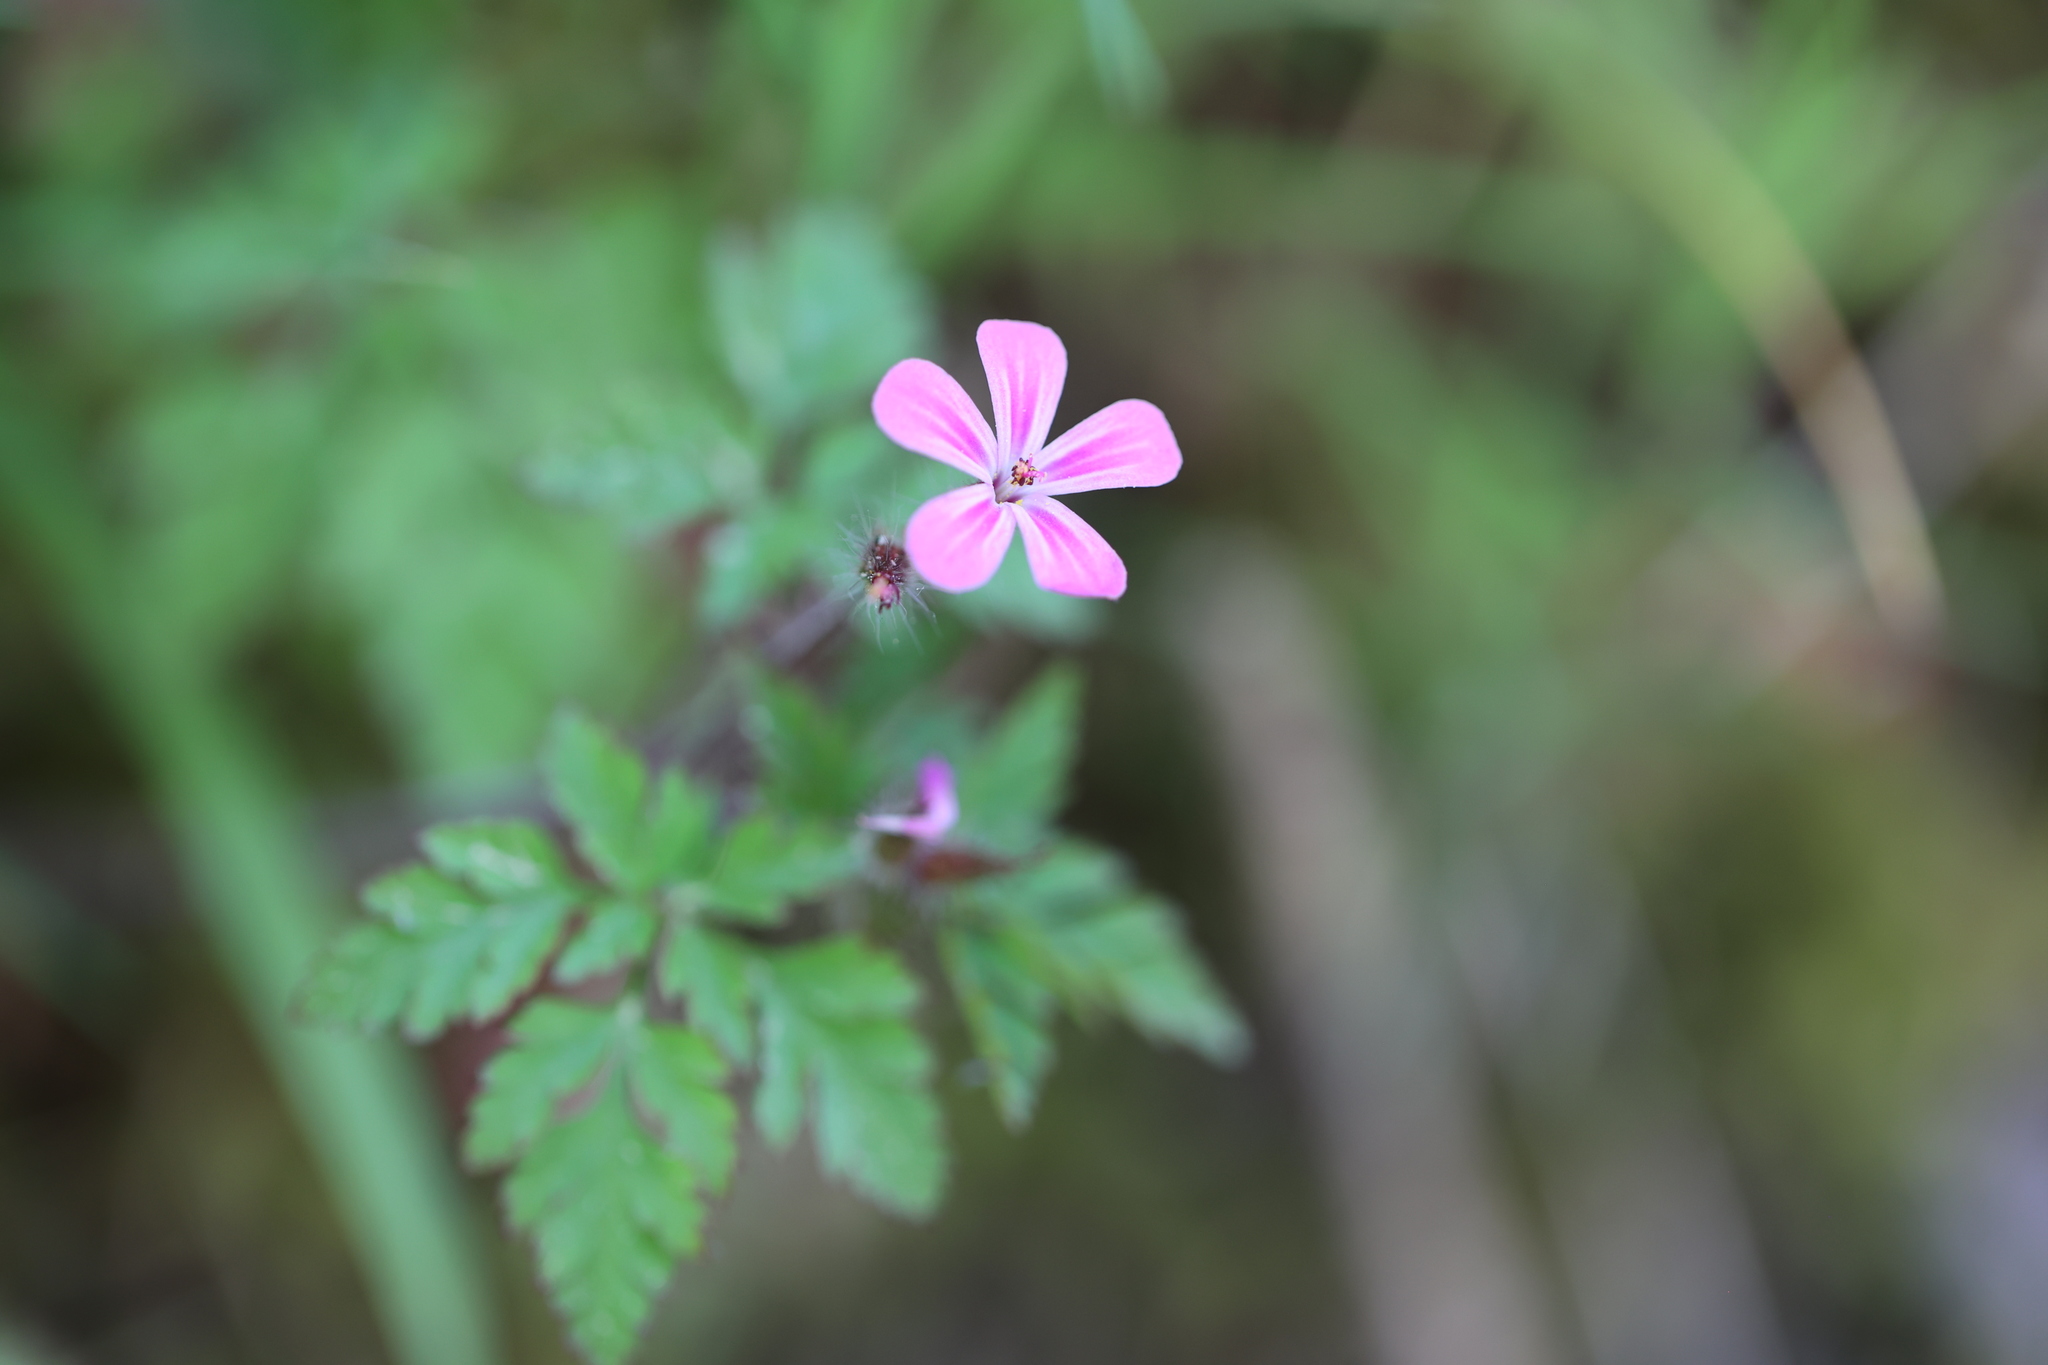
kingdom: Plantae
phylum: Tracheophyta
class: Magnoliopsida
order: Geraniales
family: Geraniaceae
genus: Geranium
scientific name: Geranium robertianum
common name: Herb-robert
